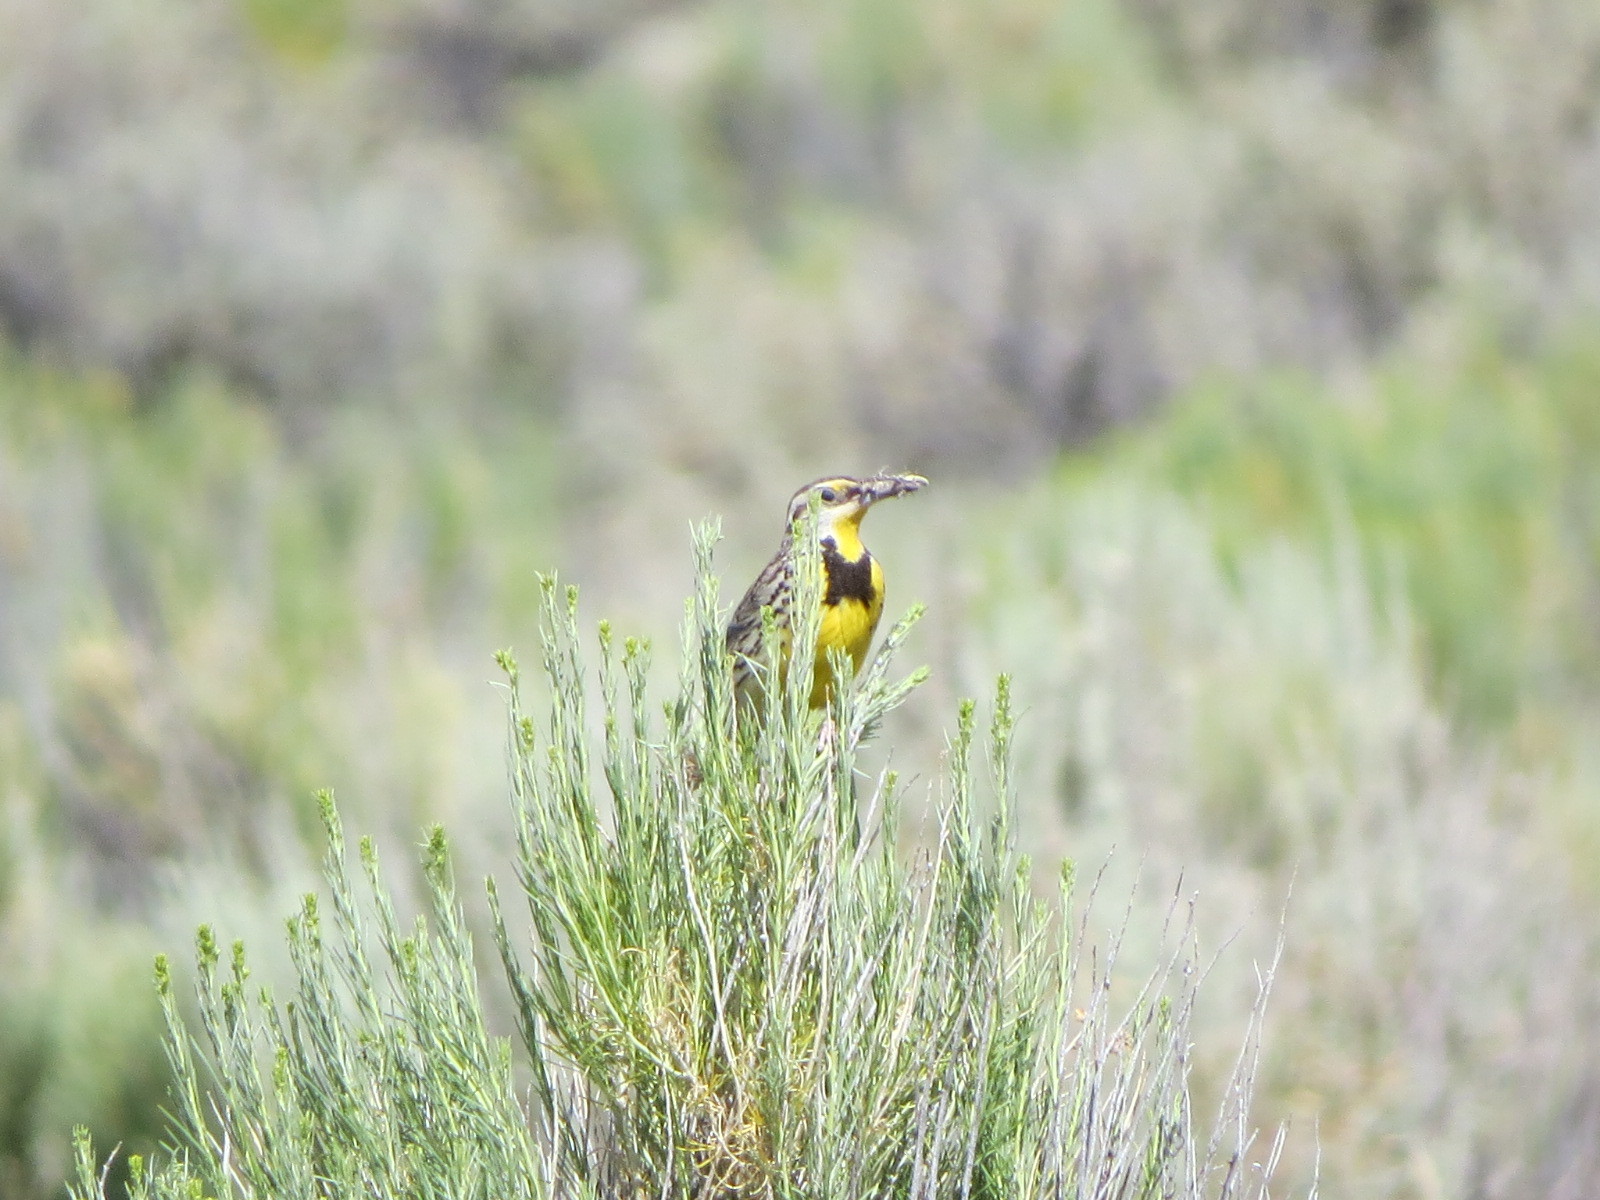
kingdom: Animalia
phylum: Chordata
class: Aves
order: Passeriformes
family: Icteridae
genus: Sturnella
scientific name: Sturnella neglecta
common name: Western meadowlark
